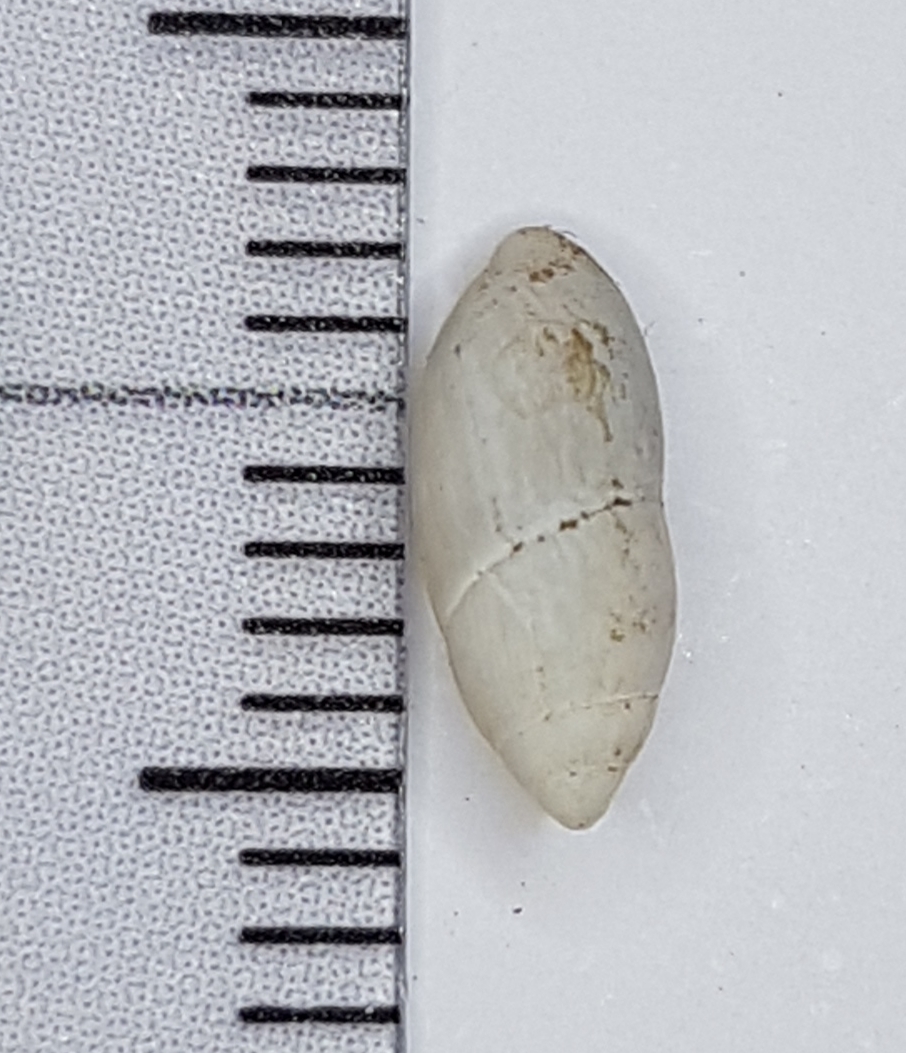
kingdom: Animalia
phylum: Mollusca
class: Gastropoda
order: Stylommatophora
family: Ferussaciidae
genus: Ferussacia
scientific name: Ferussacia folliculum
